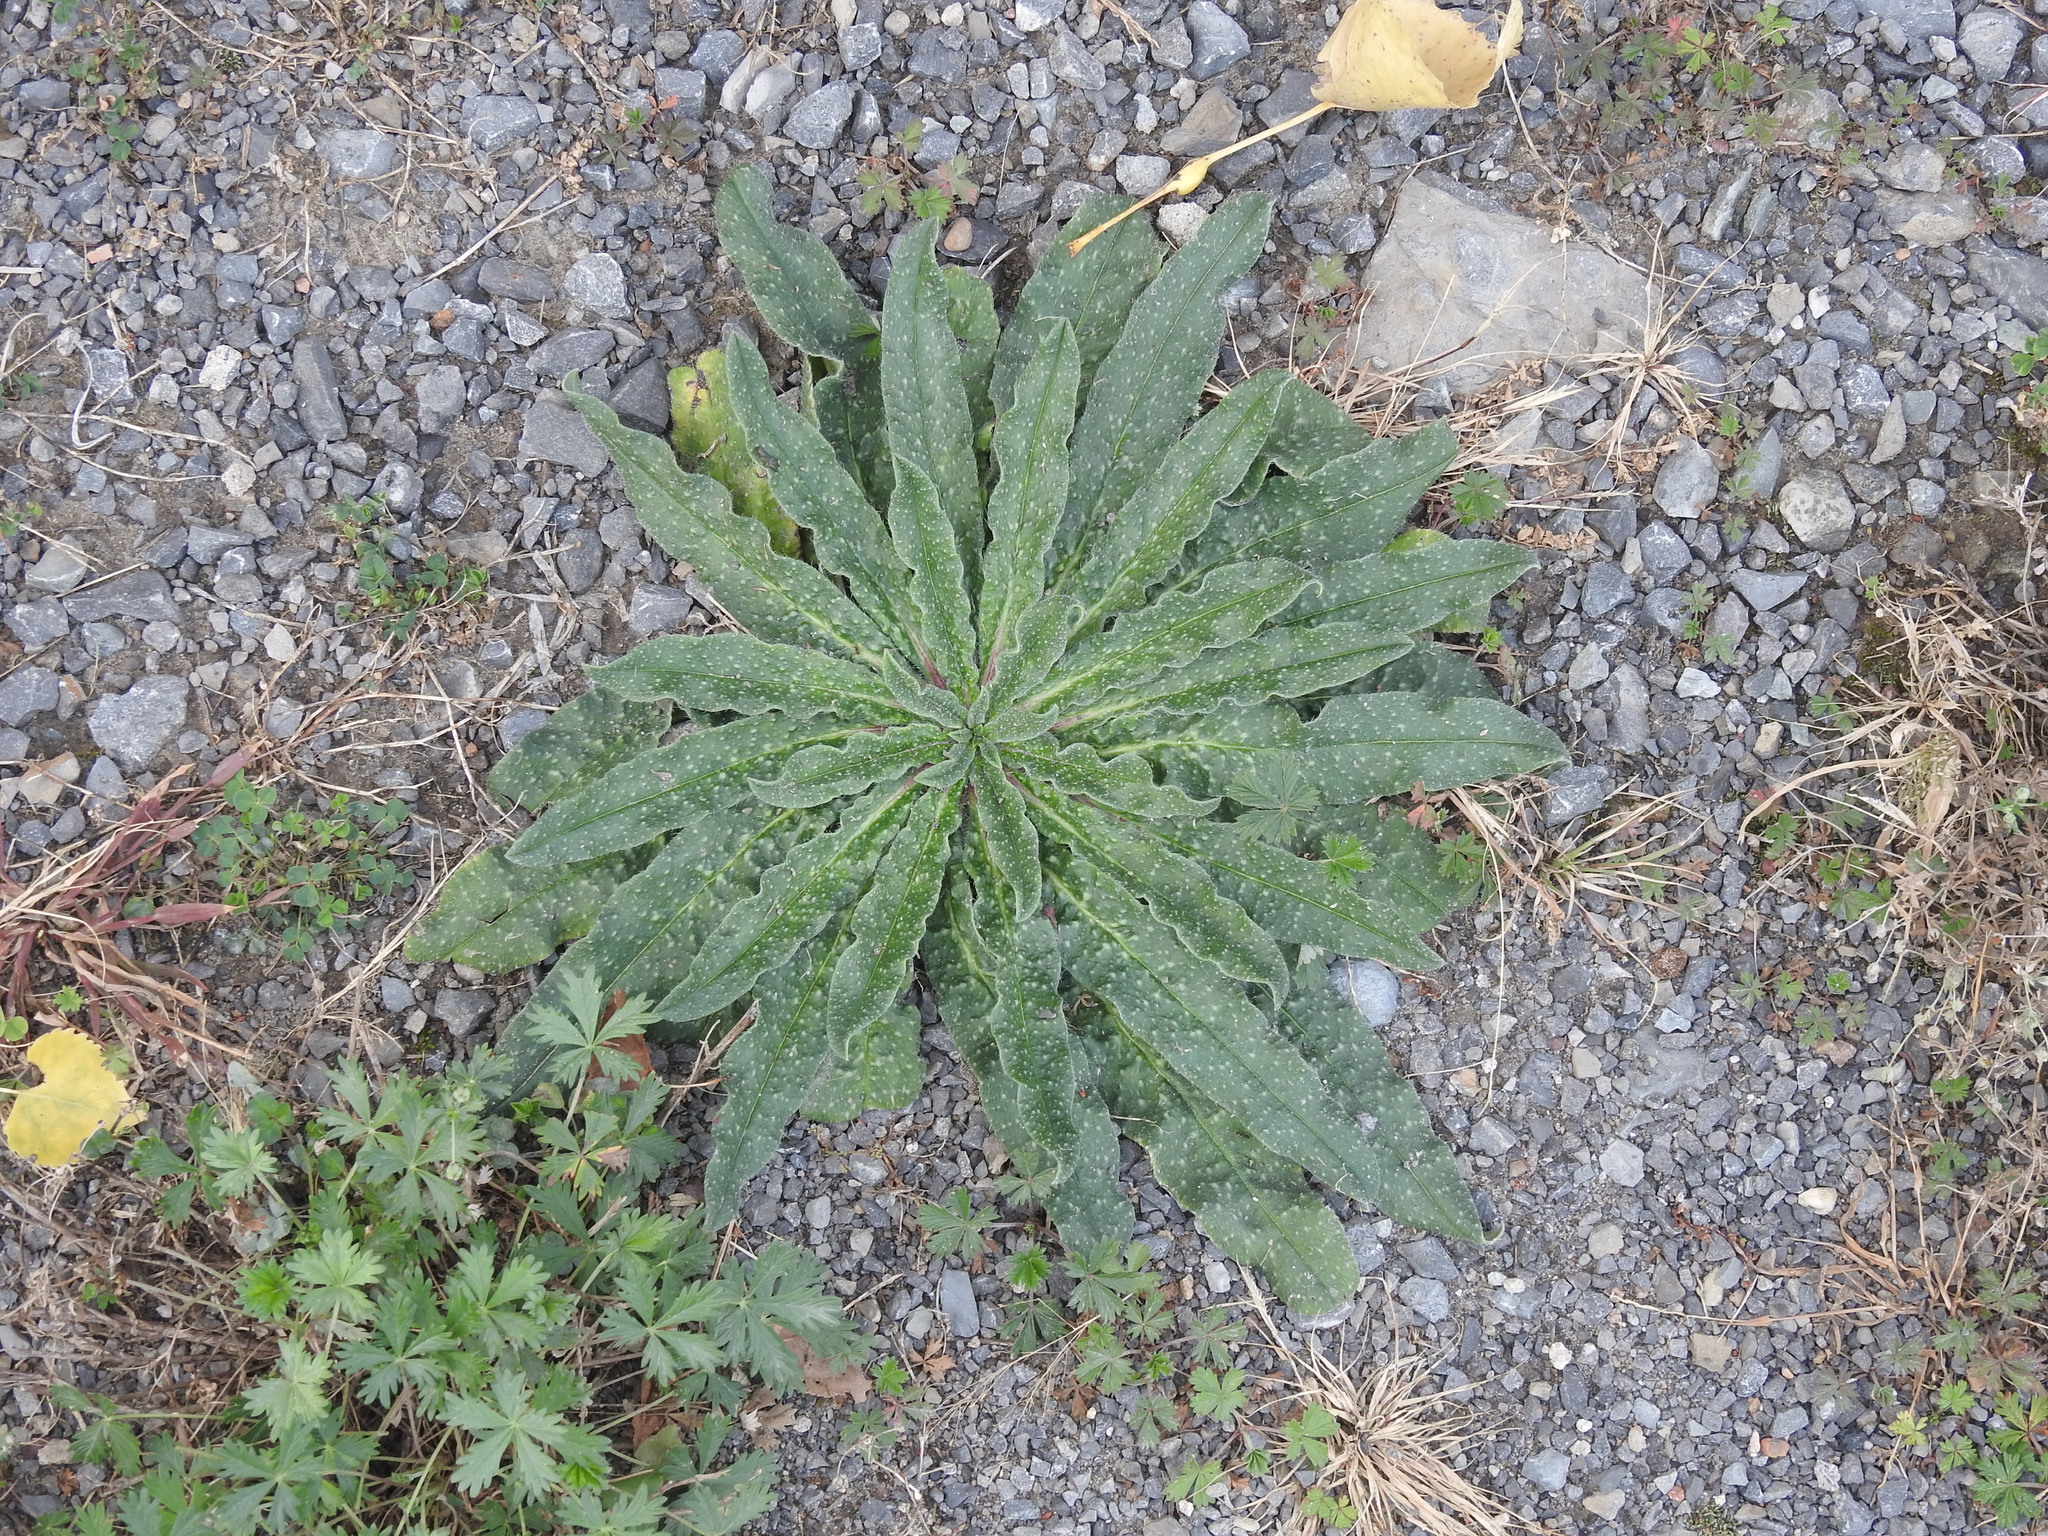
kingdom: Plantae
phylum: Tracheophyta
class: Magnoliopsida
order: Boraginales
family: Boraginaceae
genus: Echium
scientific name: Echium vulgare
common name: Common viper's bugloss
